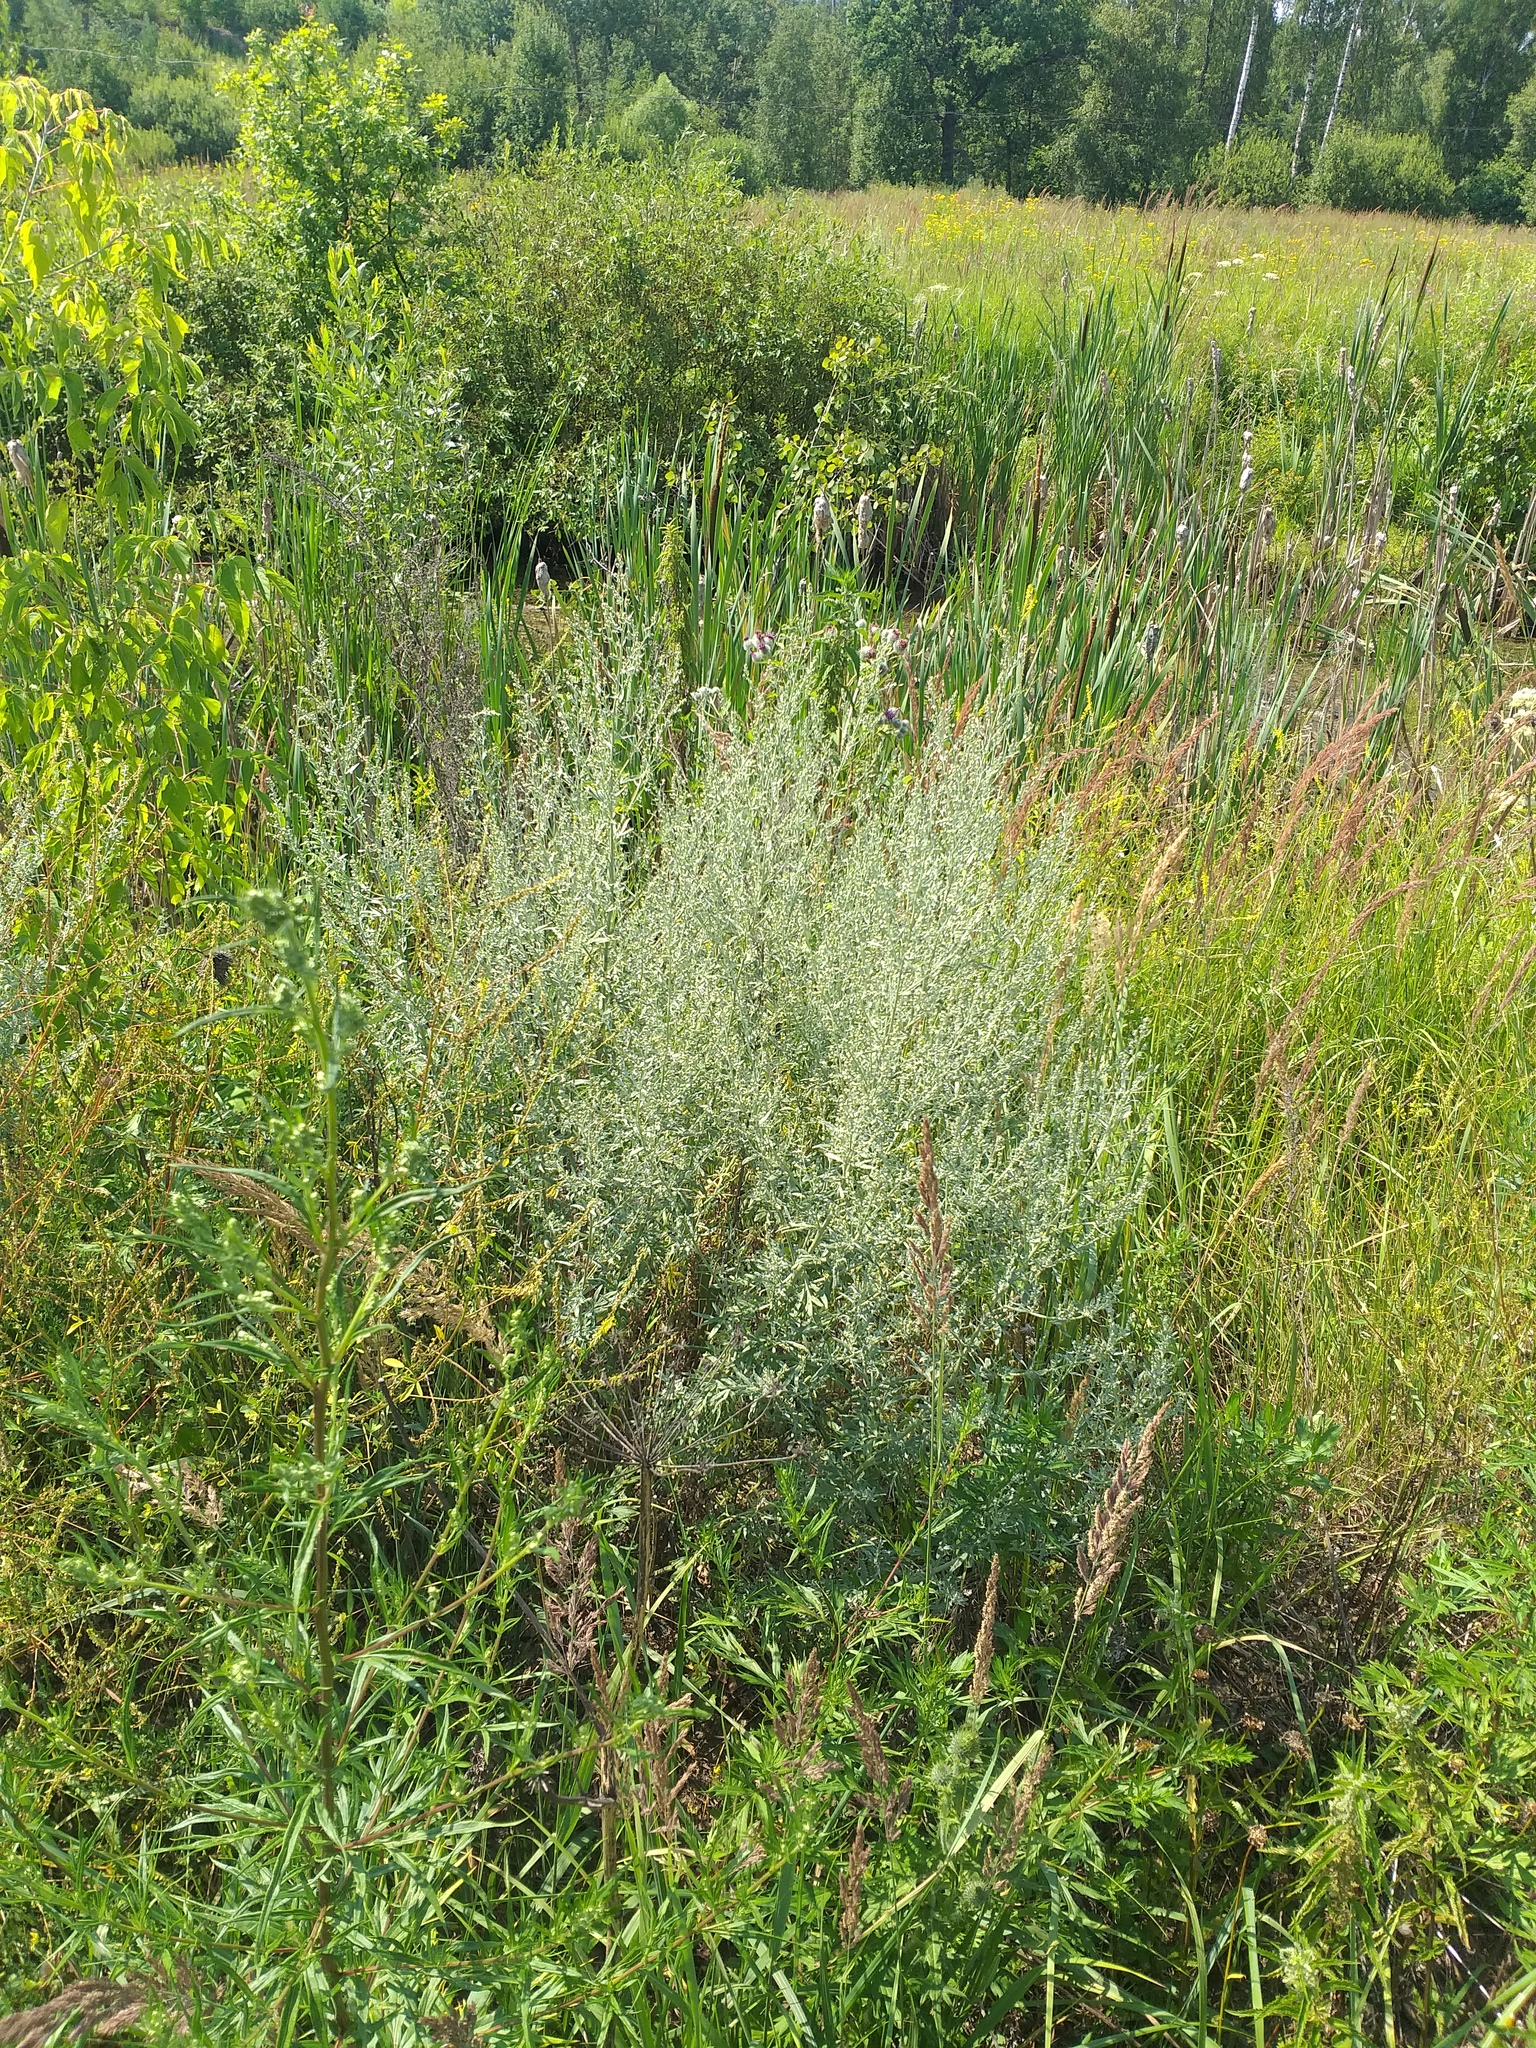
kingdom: Plantae
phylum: Tracheophyta
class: Magnoliopsida
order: Asterales
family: Asteraceae
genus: Artemisia
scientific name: Artemisia absinthium
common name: Wormwood
